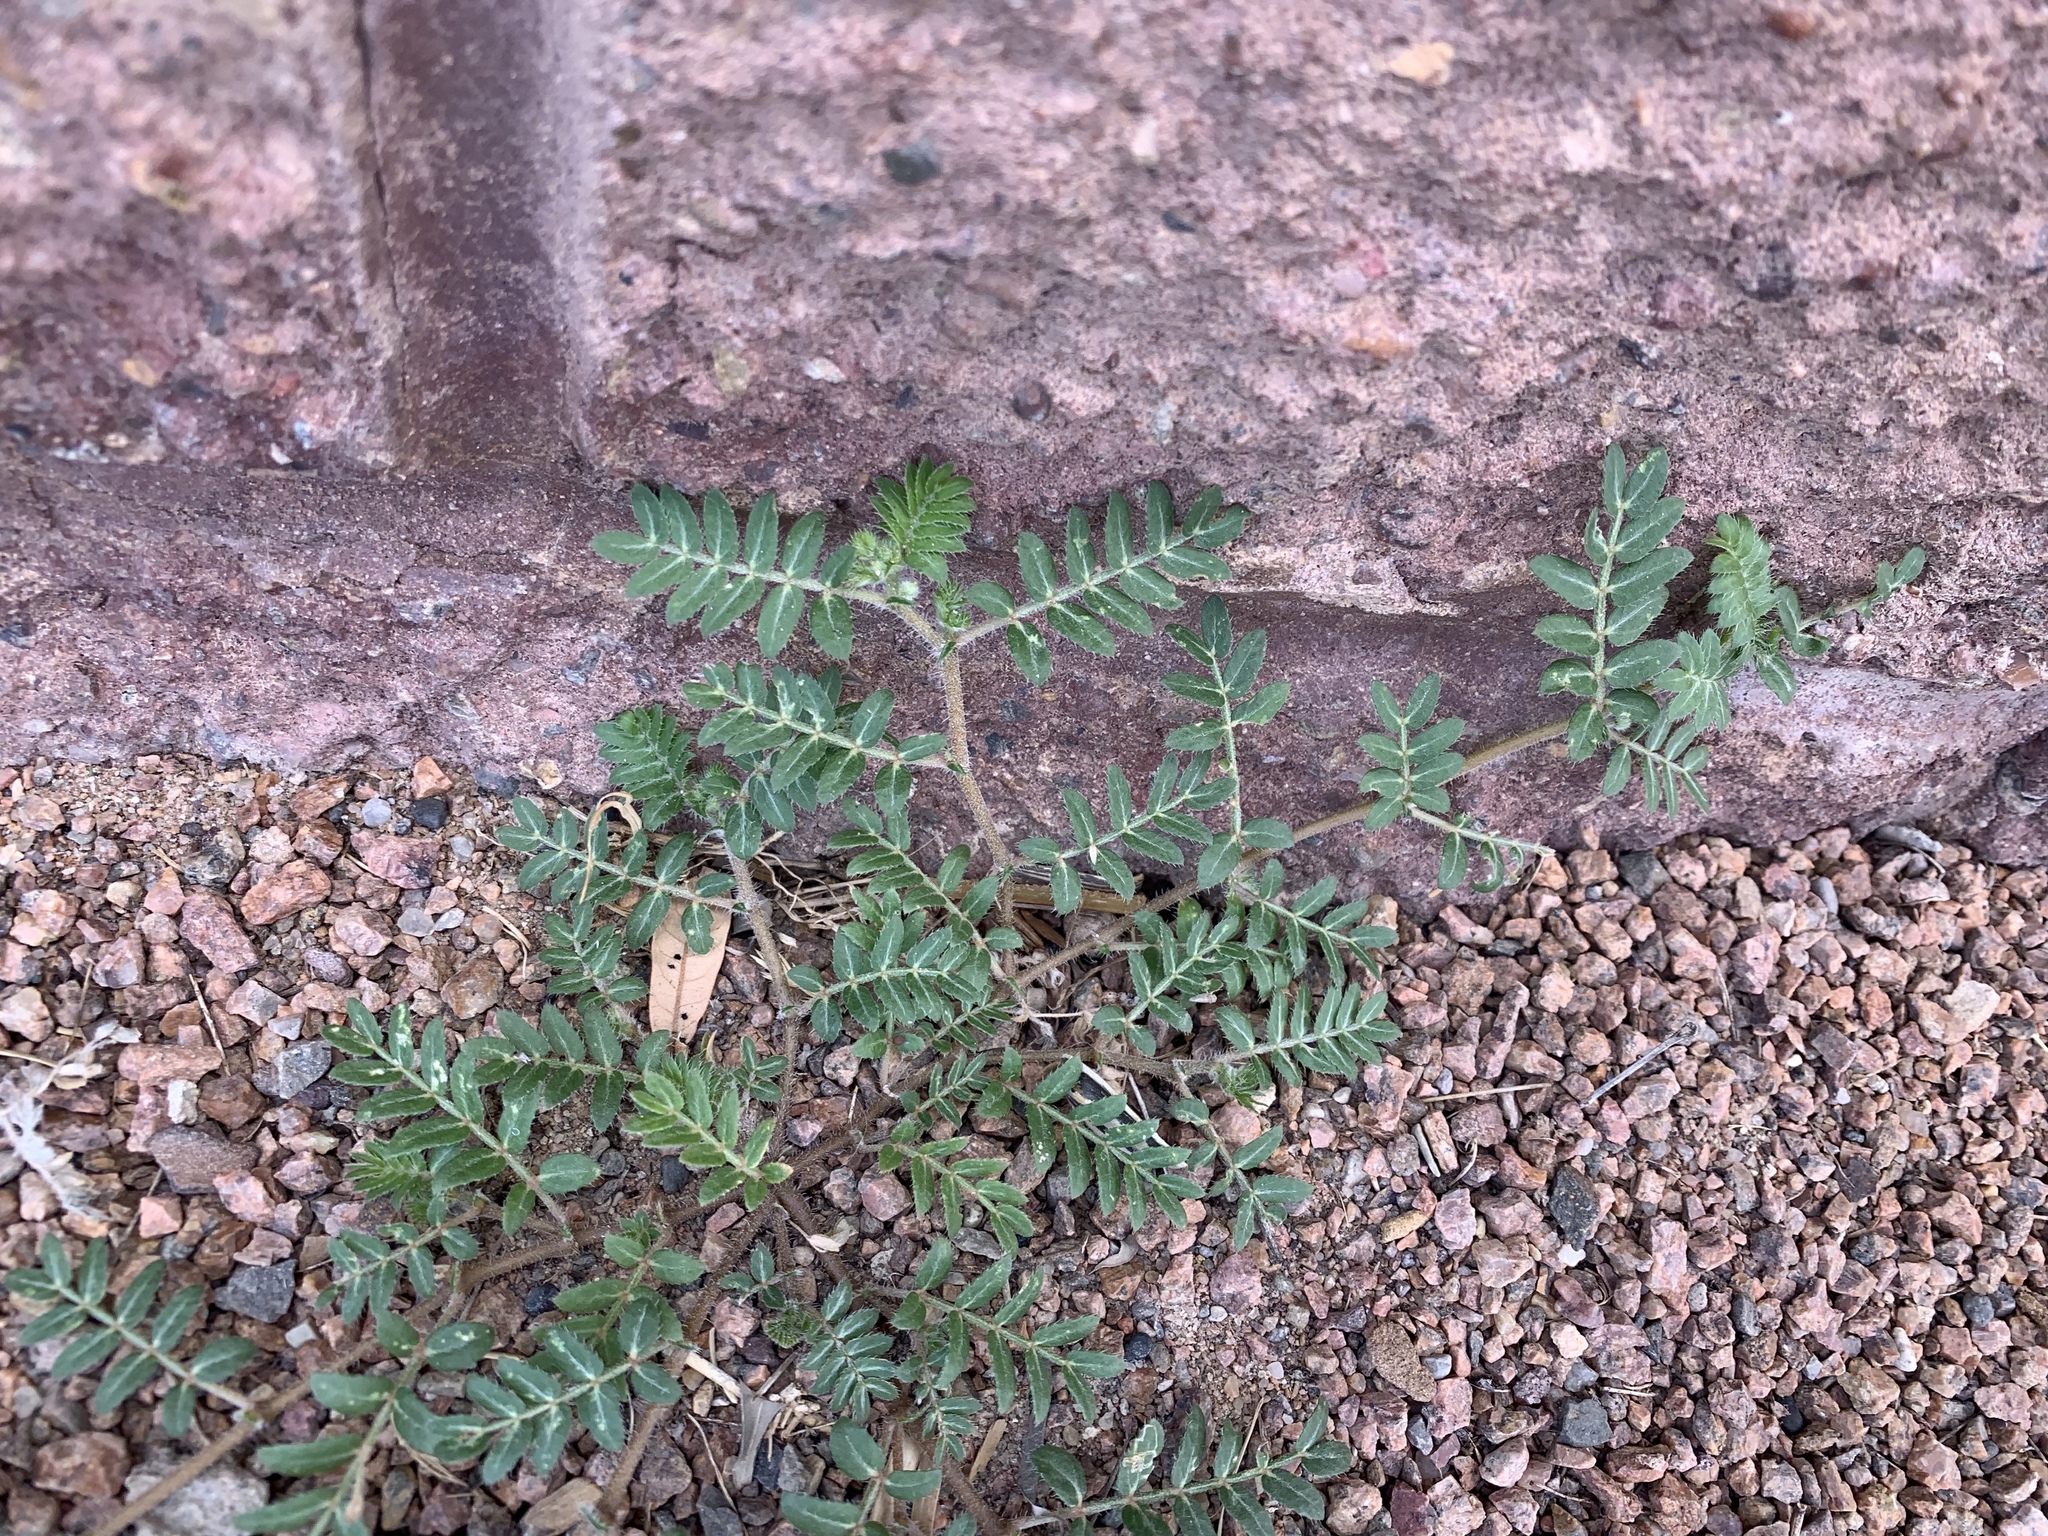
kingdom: Plantae
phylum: Tracheophyta
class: Magnoliopsida
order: Zygophyllales
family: Zygophyllaceae
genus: Tribulus
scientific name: Tribulus terrestris
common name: Puncturevine
